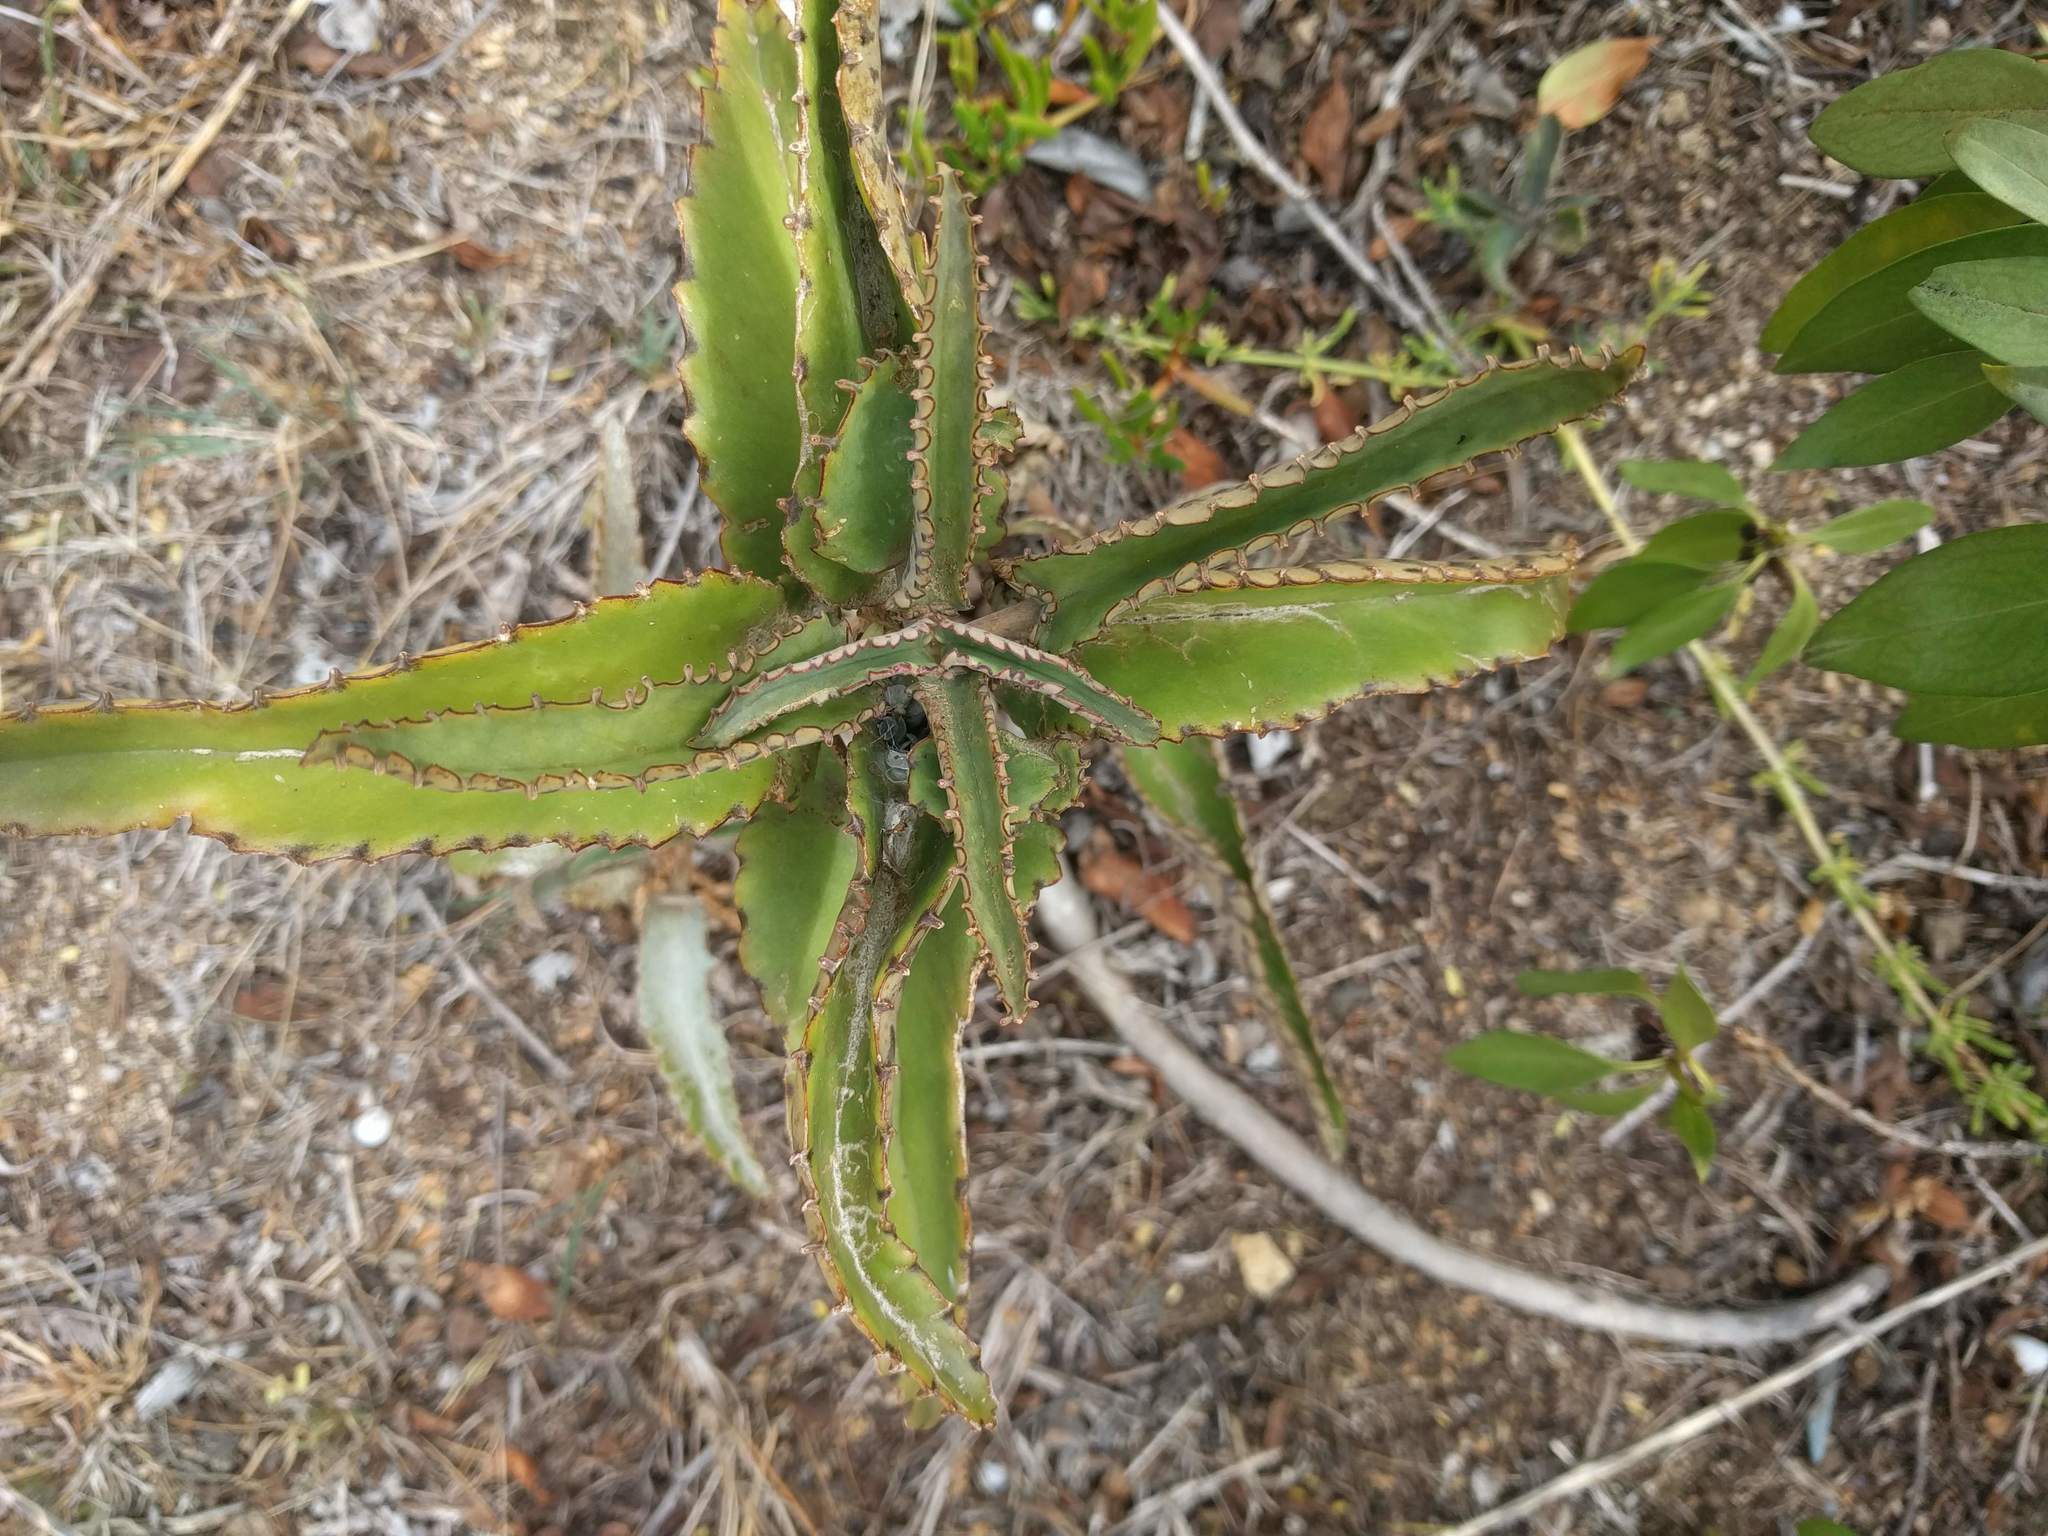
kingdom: Plantae
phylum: Tracheophyta
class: Magnoliopsida
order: Saxifragales
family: Crassulaceae
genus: Kalanchoe
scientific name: Kalanchoe daigremontiana
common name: Devil's backbone
